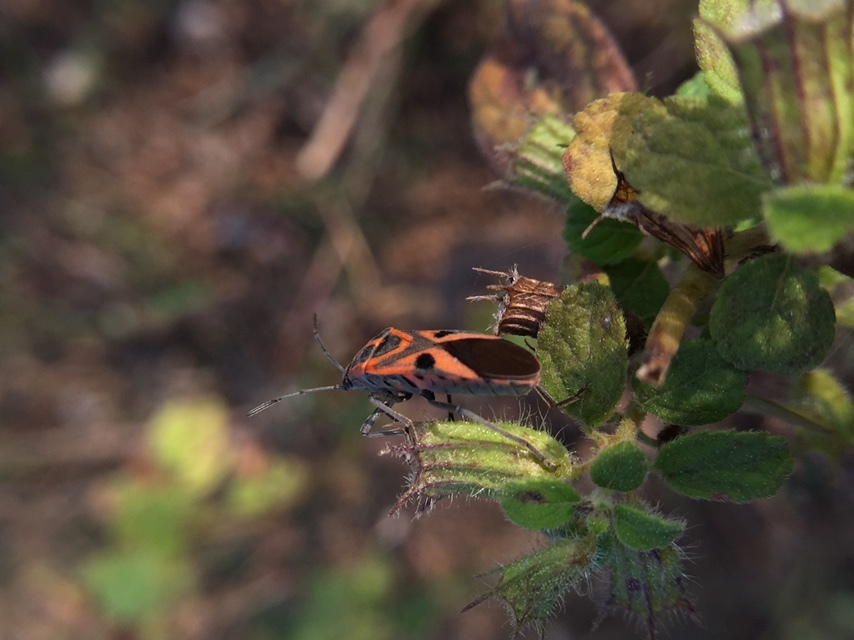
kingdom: Animalia
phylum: Arthropoda
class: Insecta
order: Hemiptera
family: Lygaeidae
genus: Spilostethus
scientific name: Spilostethus hospes
